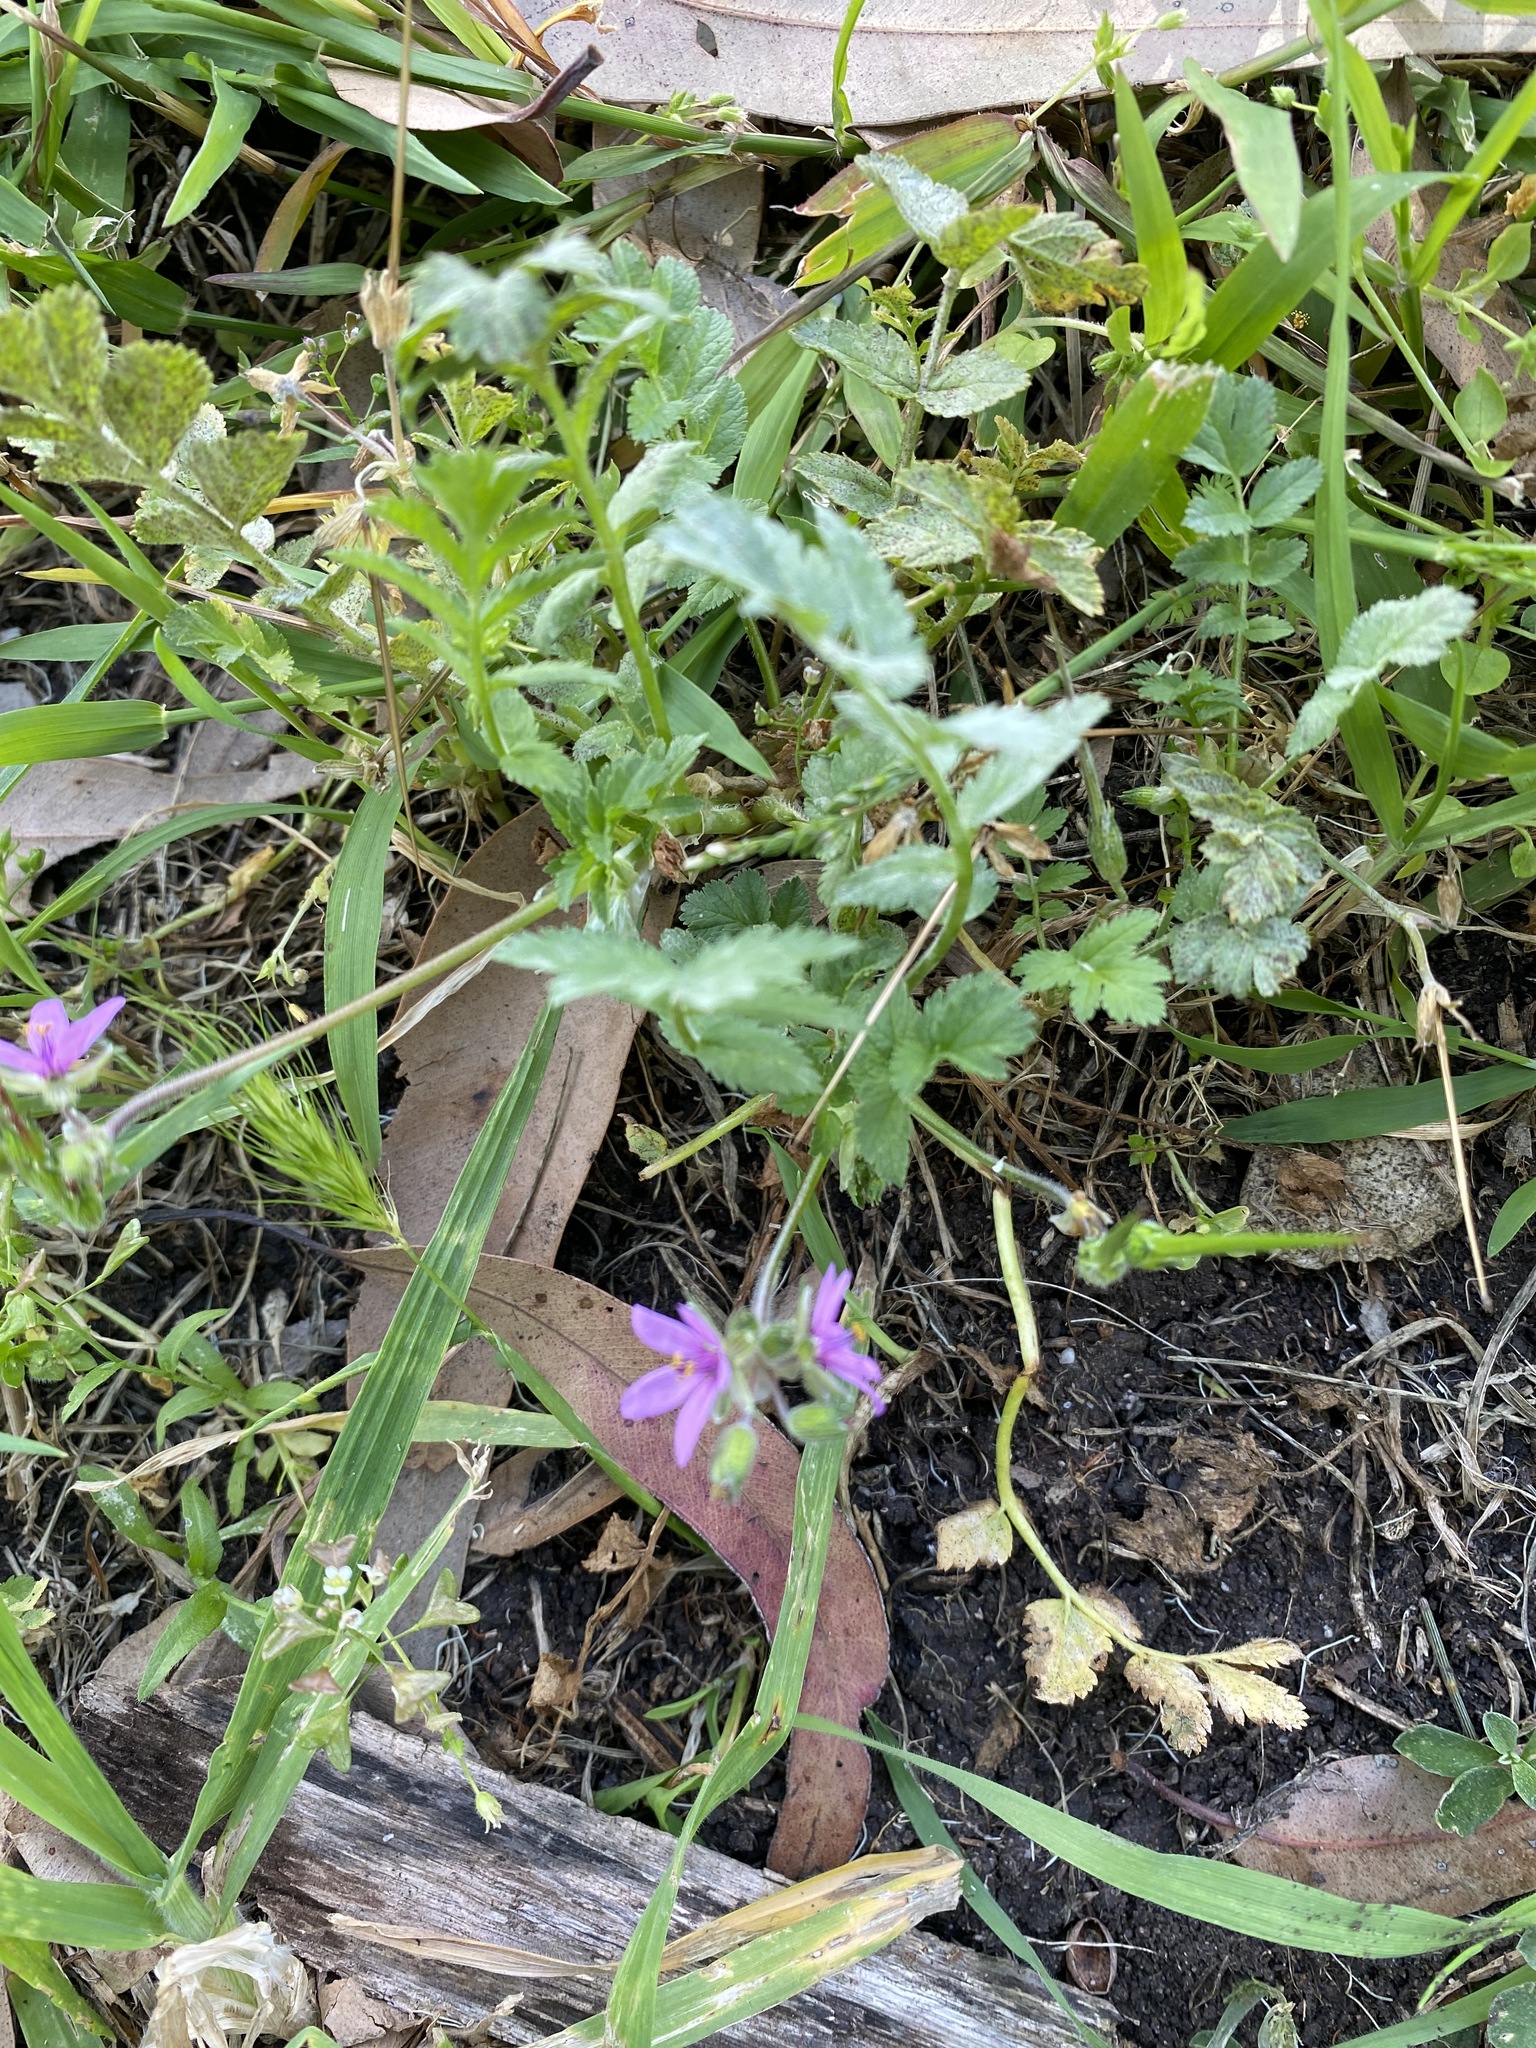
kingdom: Plantae
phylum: Tracheophyta
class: Magnoliopsida
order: Geraniales
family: Geraniaceae
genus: Erodium
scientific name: Erodium moschatum
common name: Musk stork's-bill
